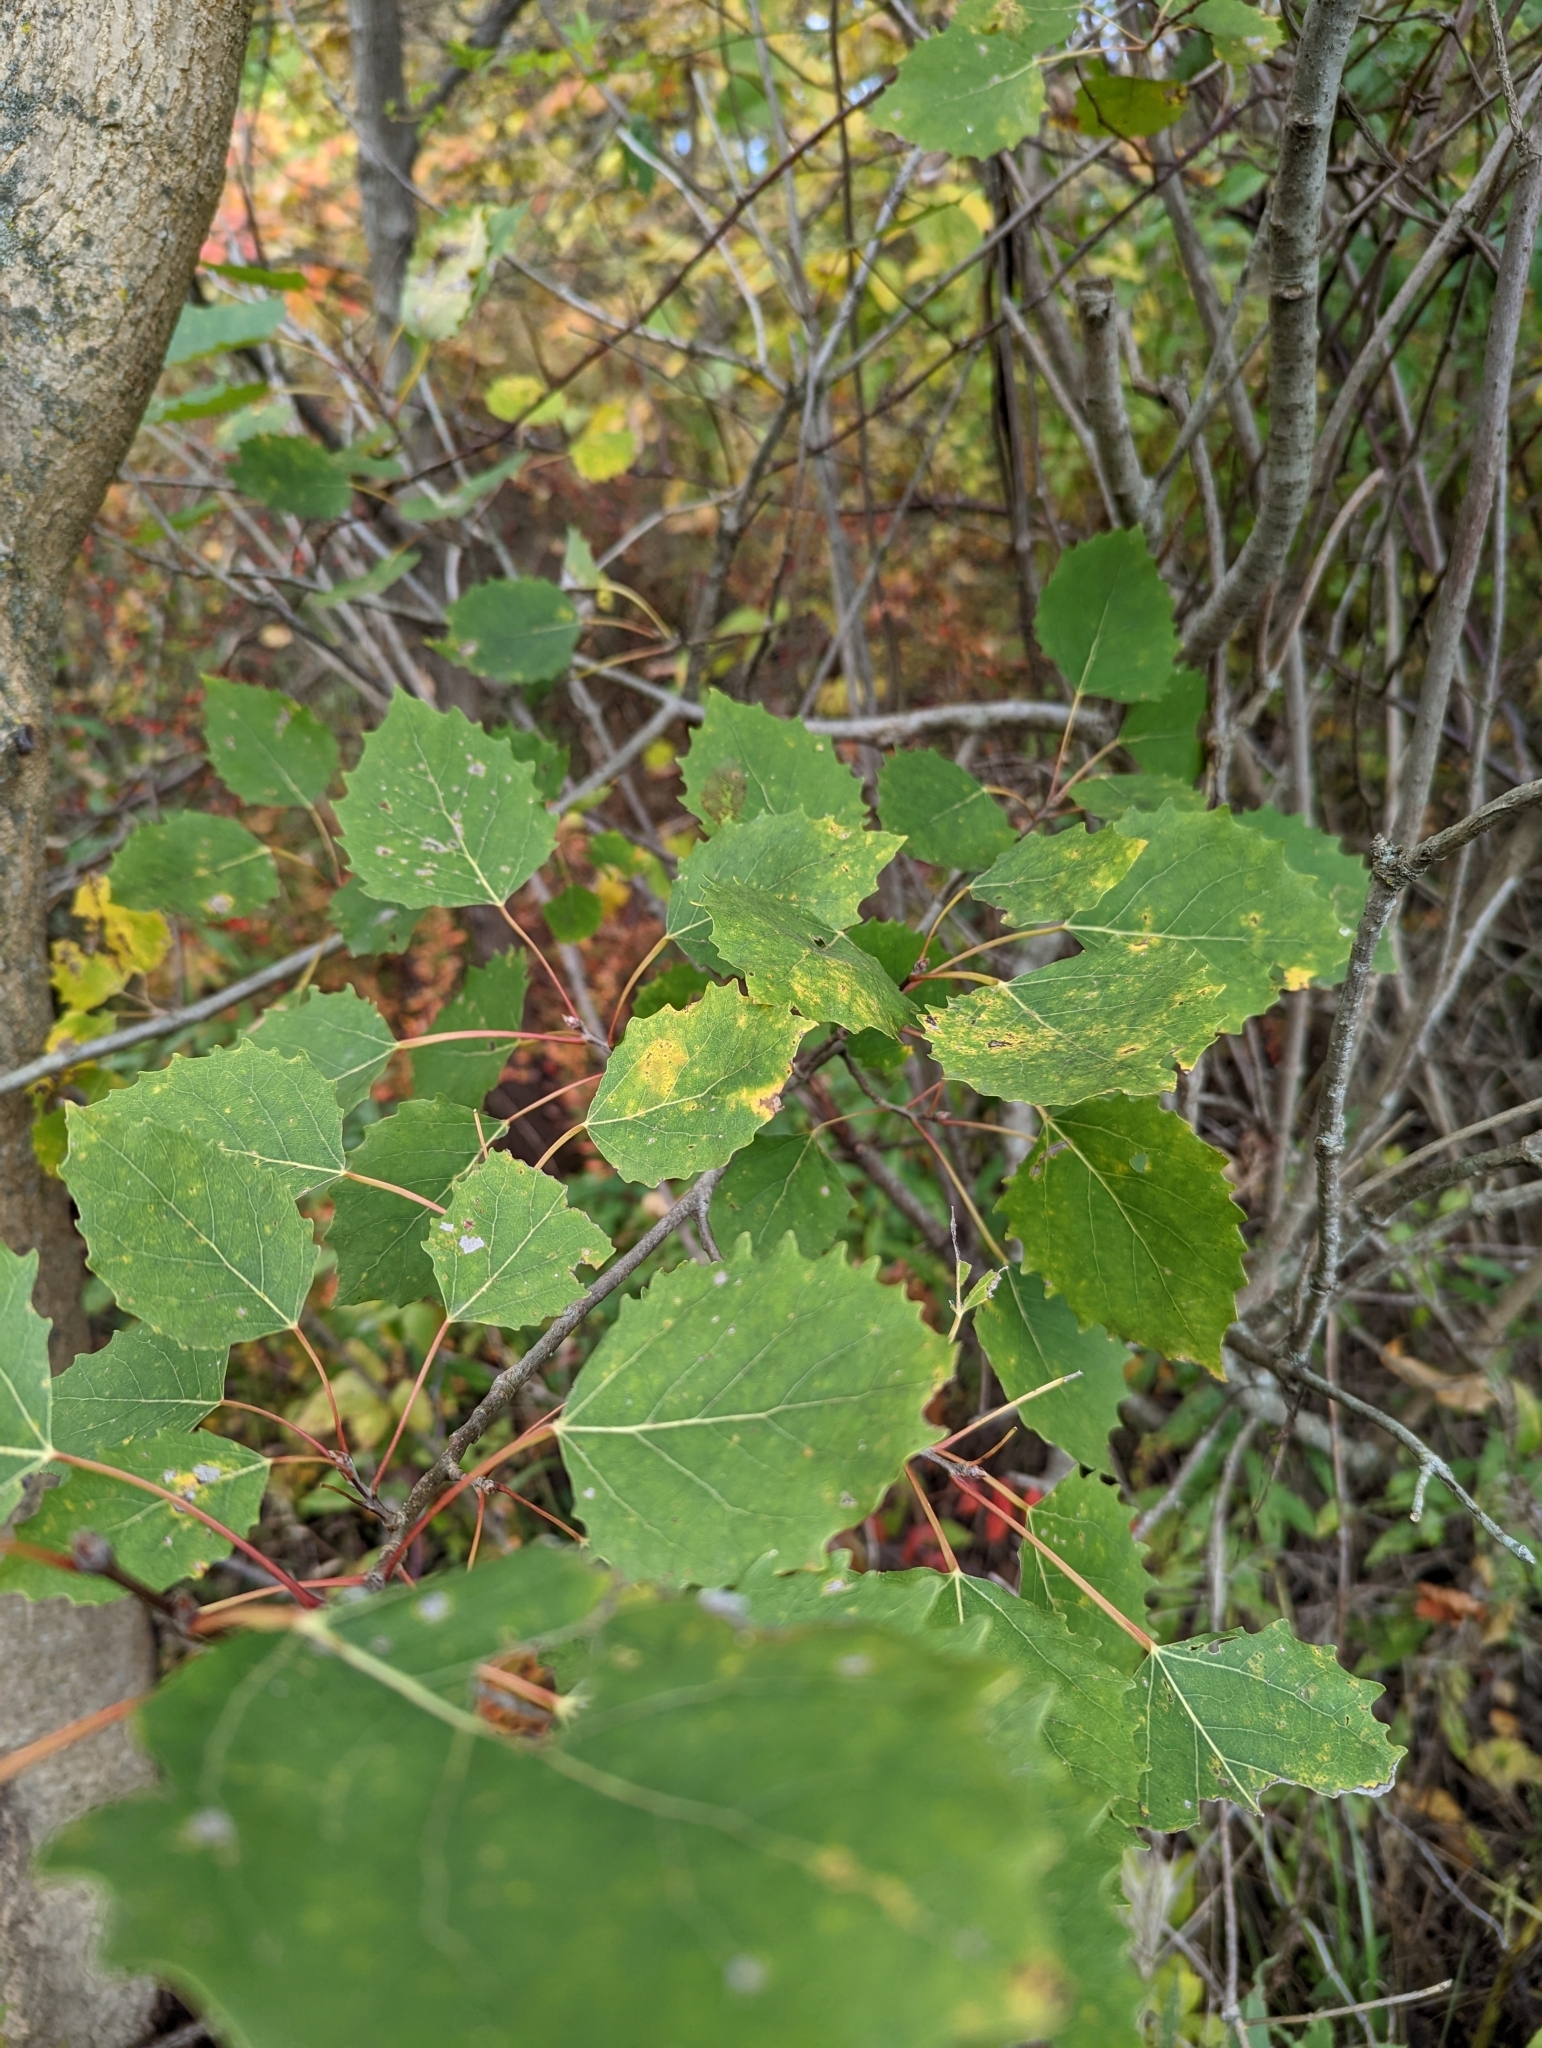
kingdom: Plantae
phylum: Tracheophyta
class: Magnoliopsida
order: Malpighiales
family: Salicaceae
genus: Populus
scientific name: Populus grandidentata
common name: Bigtooth aspen
